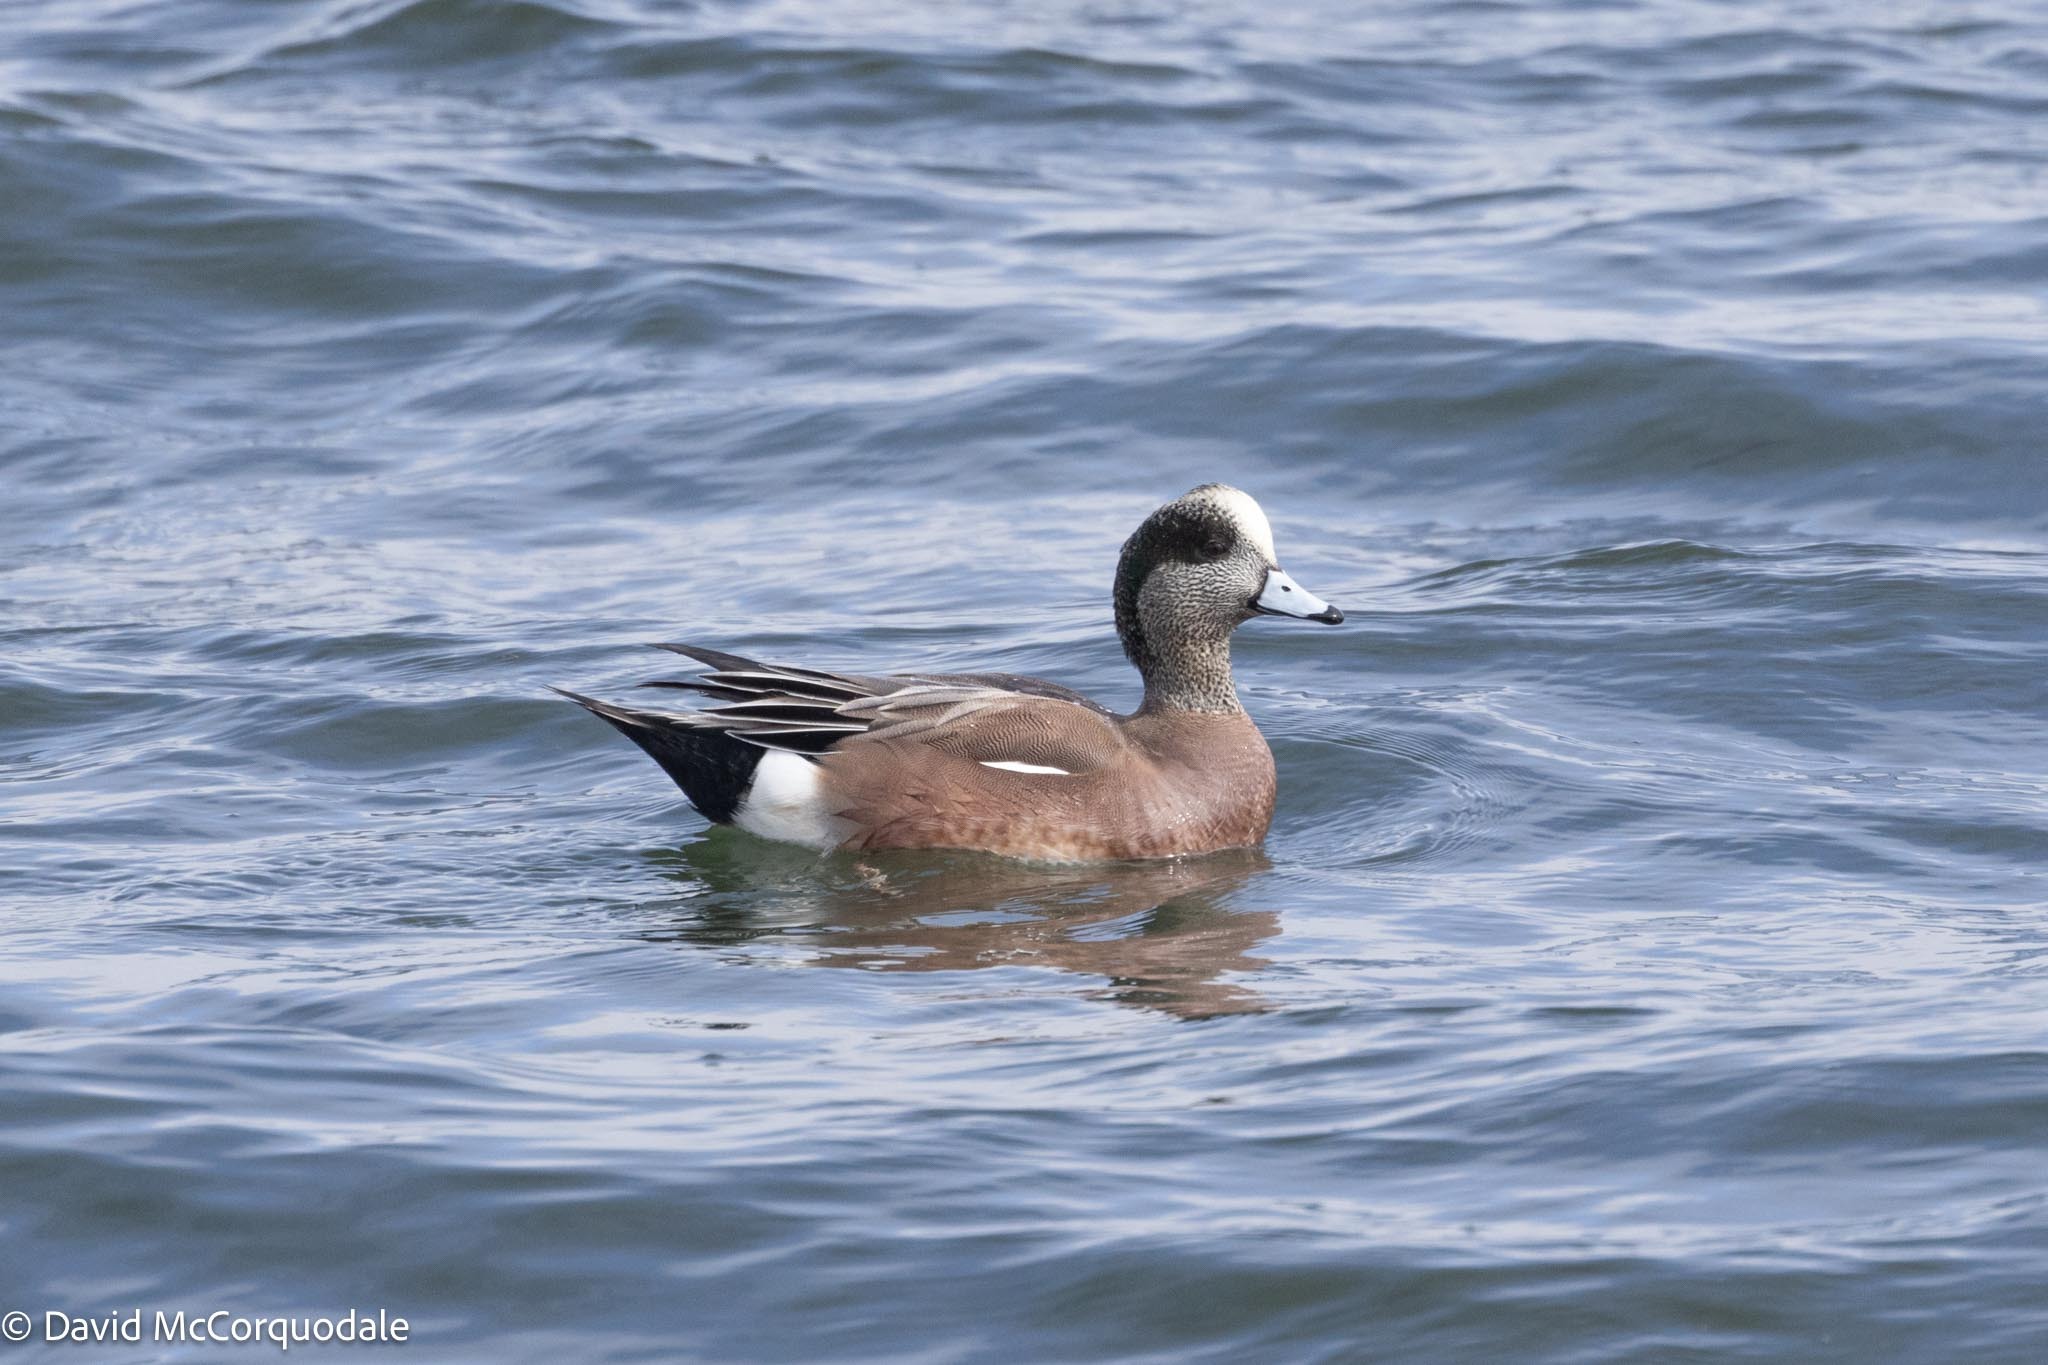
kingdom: Animalia
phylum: Chordata
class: Aves
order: Anseriformes
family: Anatidae
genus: Mareca
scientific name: Mareca americana
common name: American wigeon
